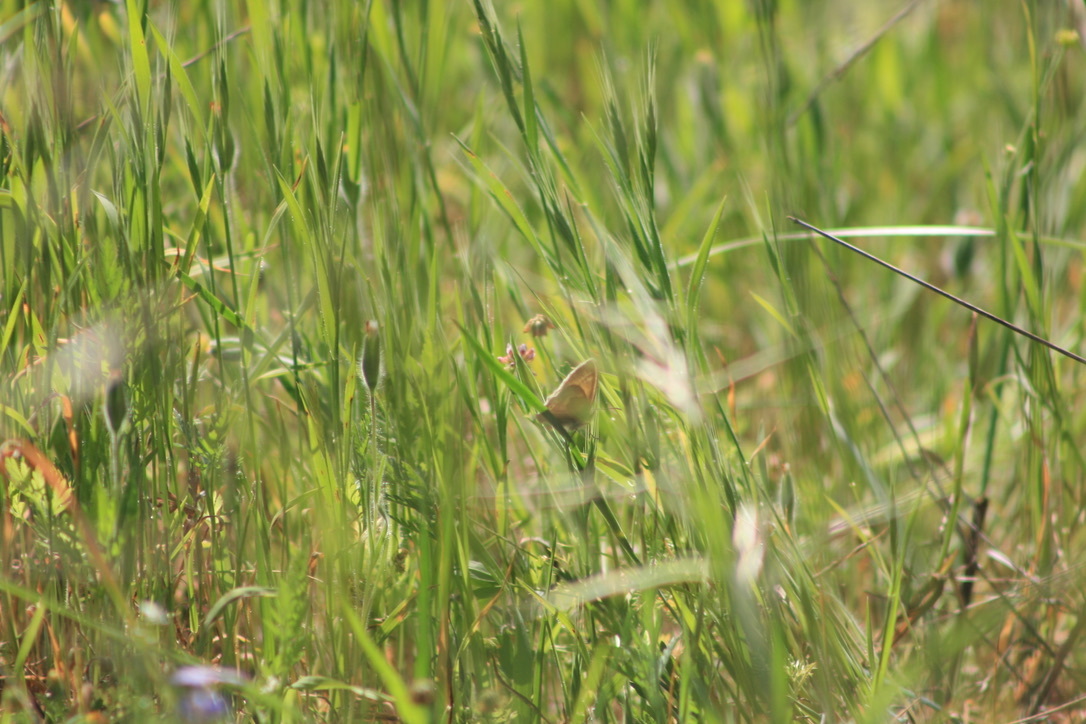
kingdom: Animalia
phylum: Arthropoda
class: Insecta
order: Lepidoptera
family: Nymphalidae
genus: Coenonympha
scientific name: Coenonympha california
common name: Common ringlet
